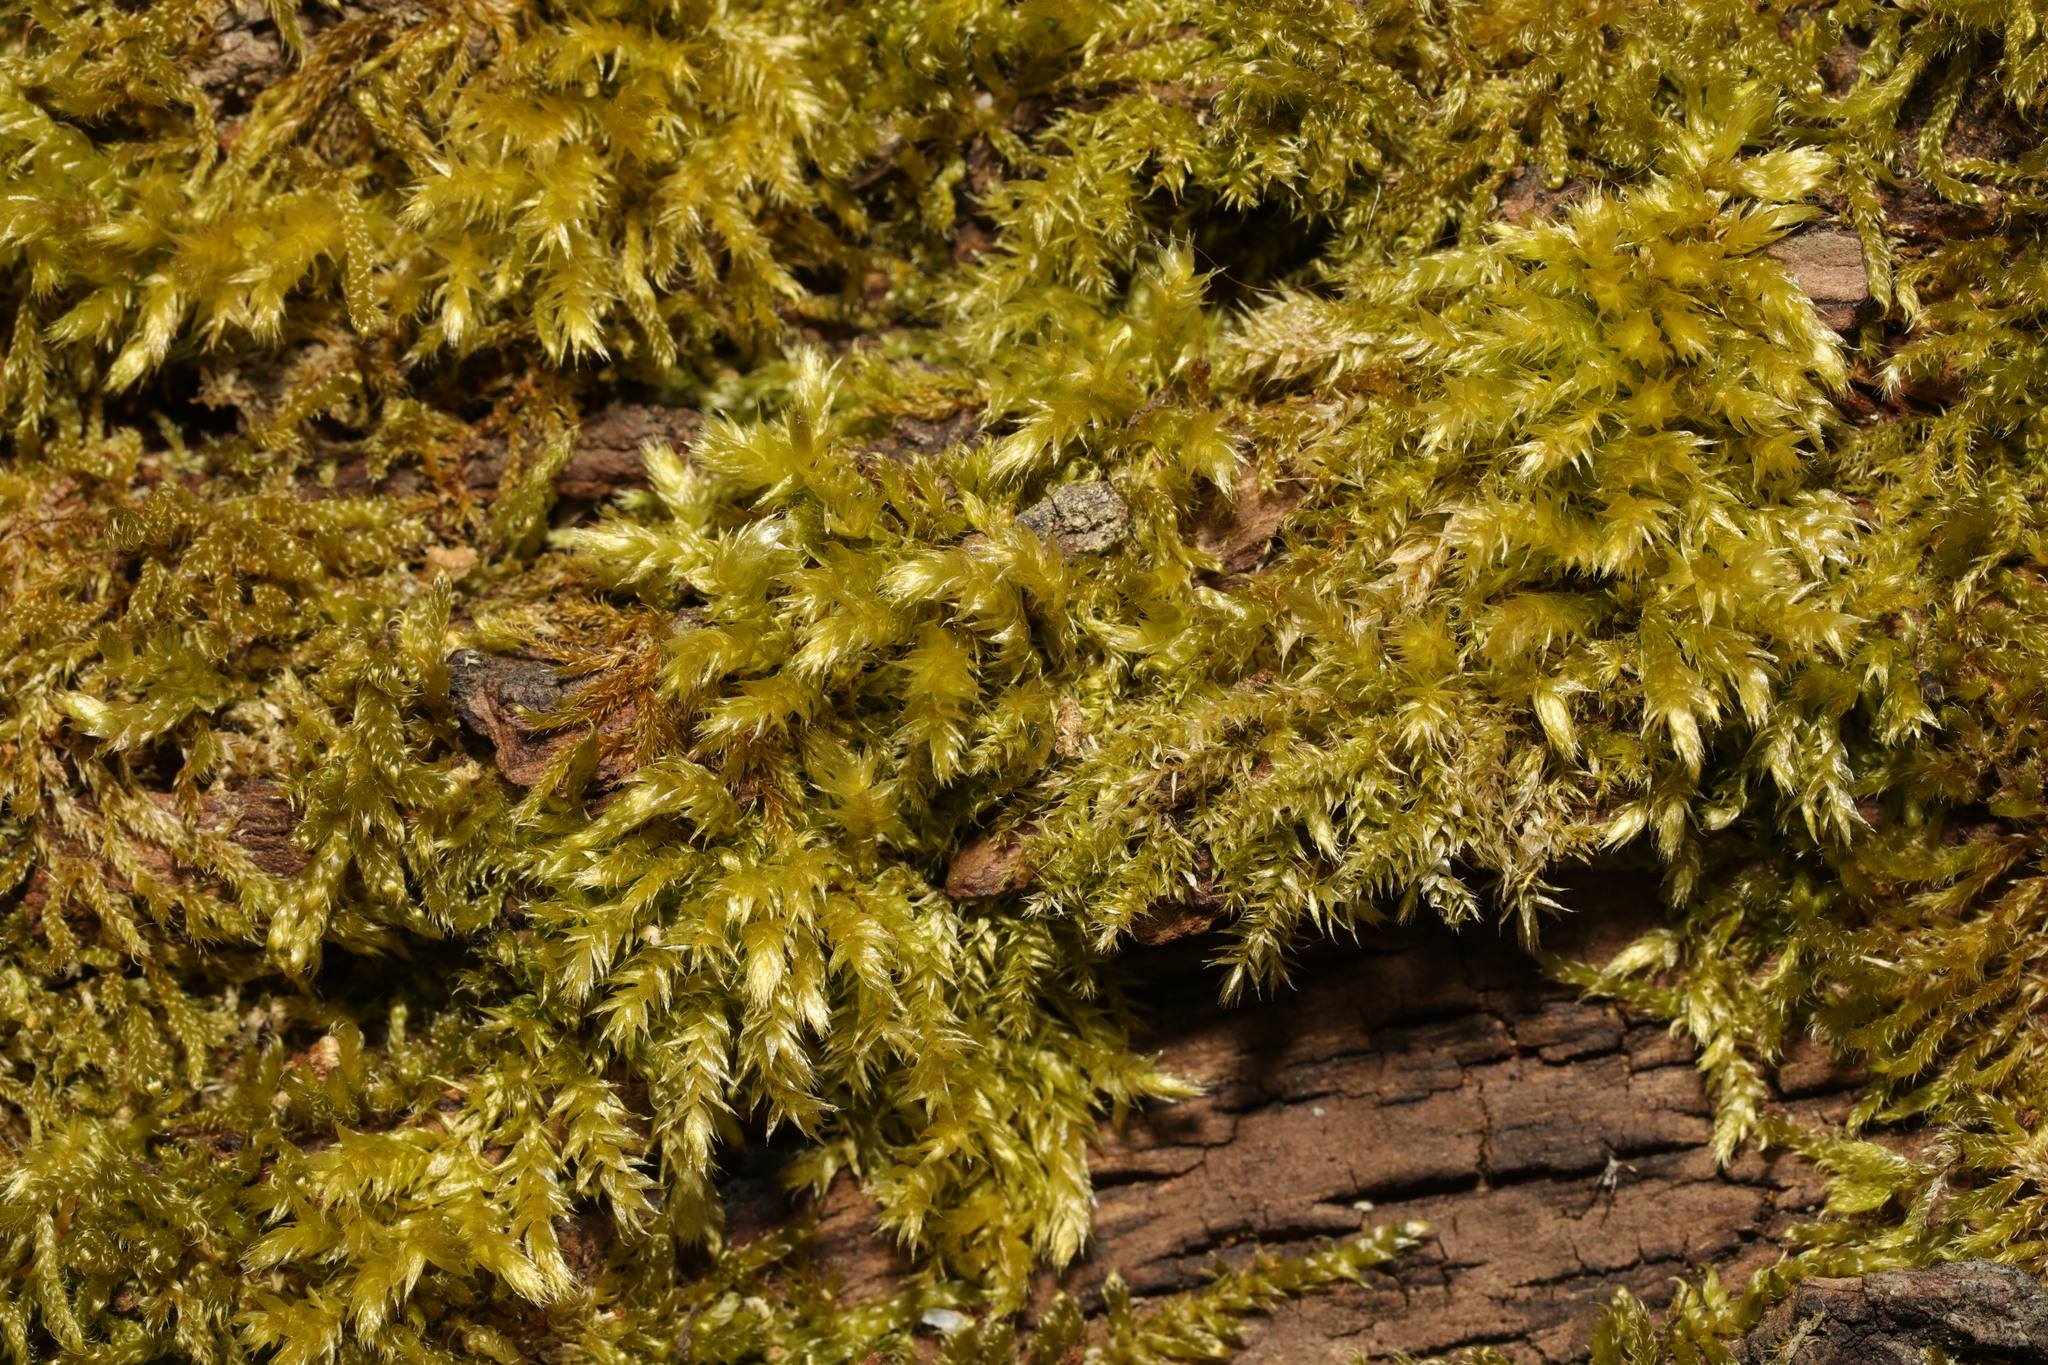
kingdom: Plantae
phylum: Bryophyta
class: Bryopsida
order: Hypnales
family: Brachytheciaceae
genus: Brachythecium
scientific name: Brachythecium rutabulum
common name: Rough-stalked feather-moss
